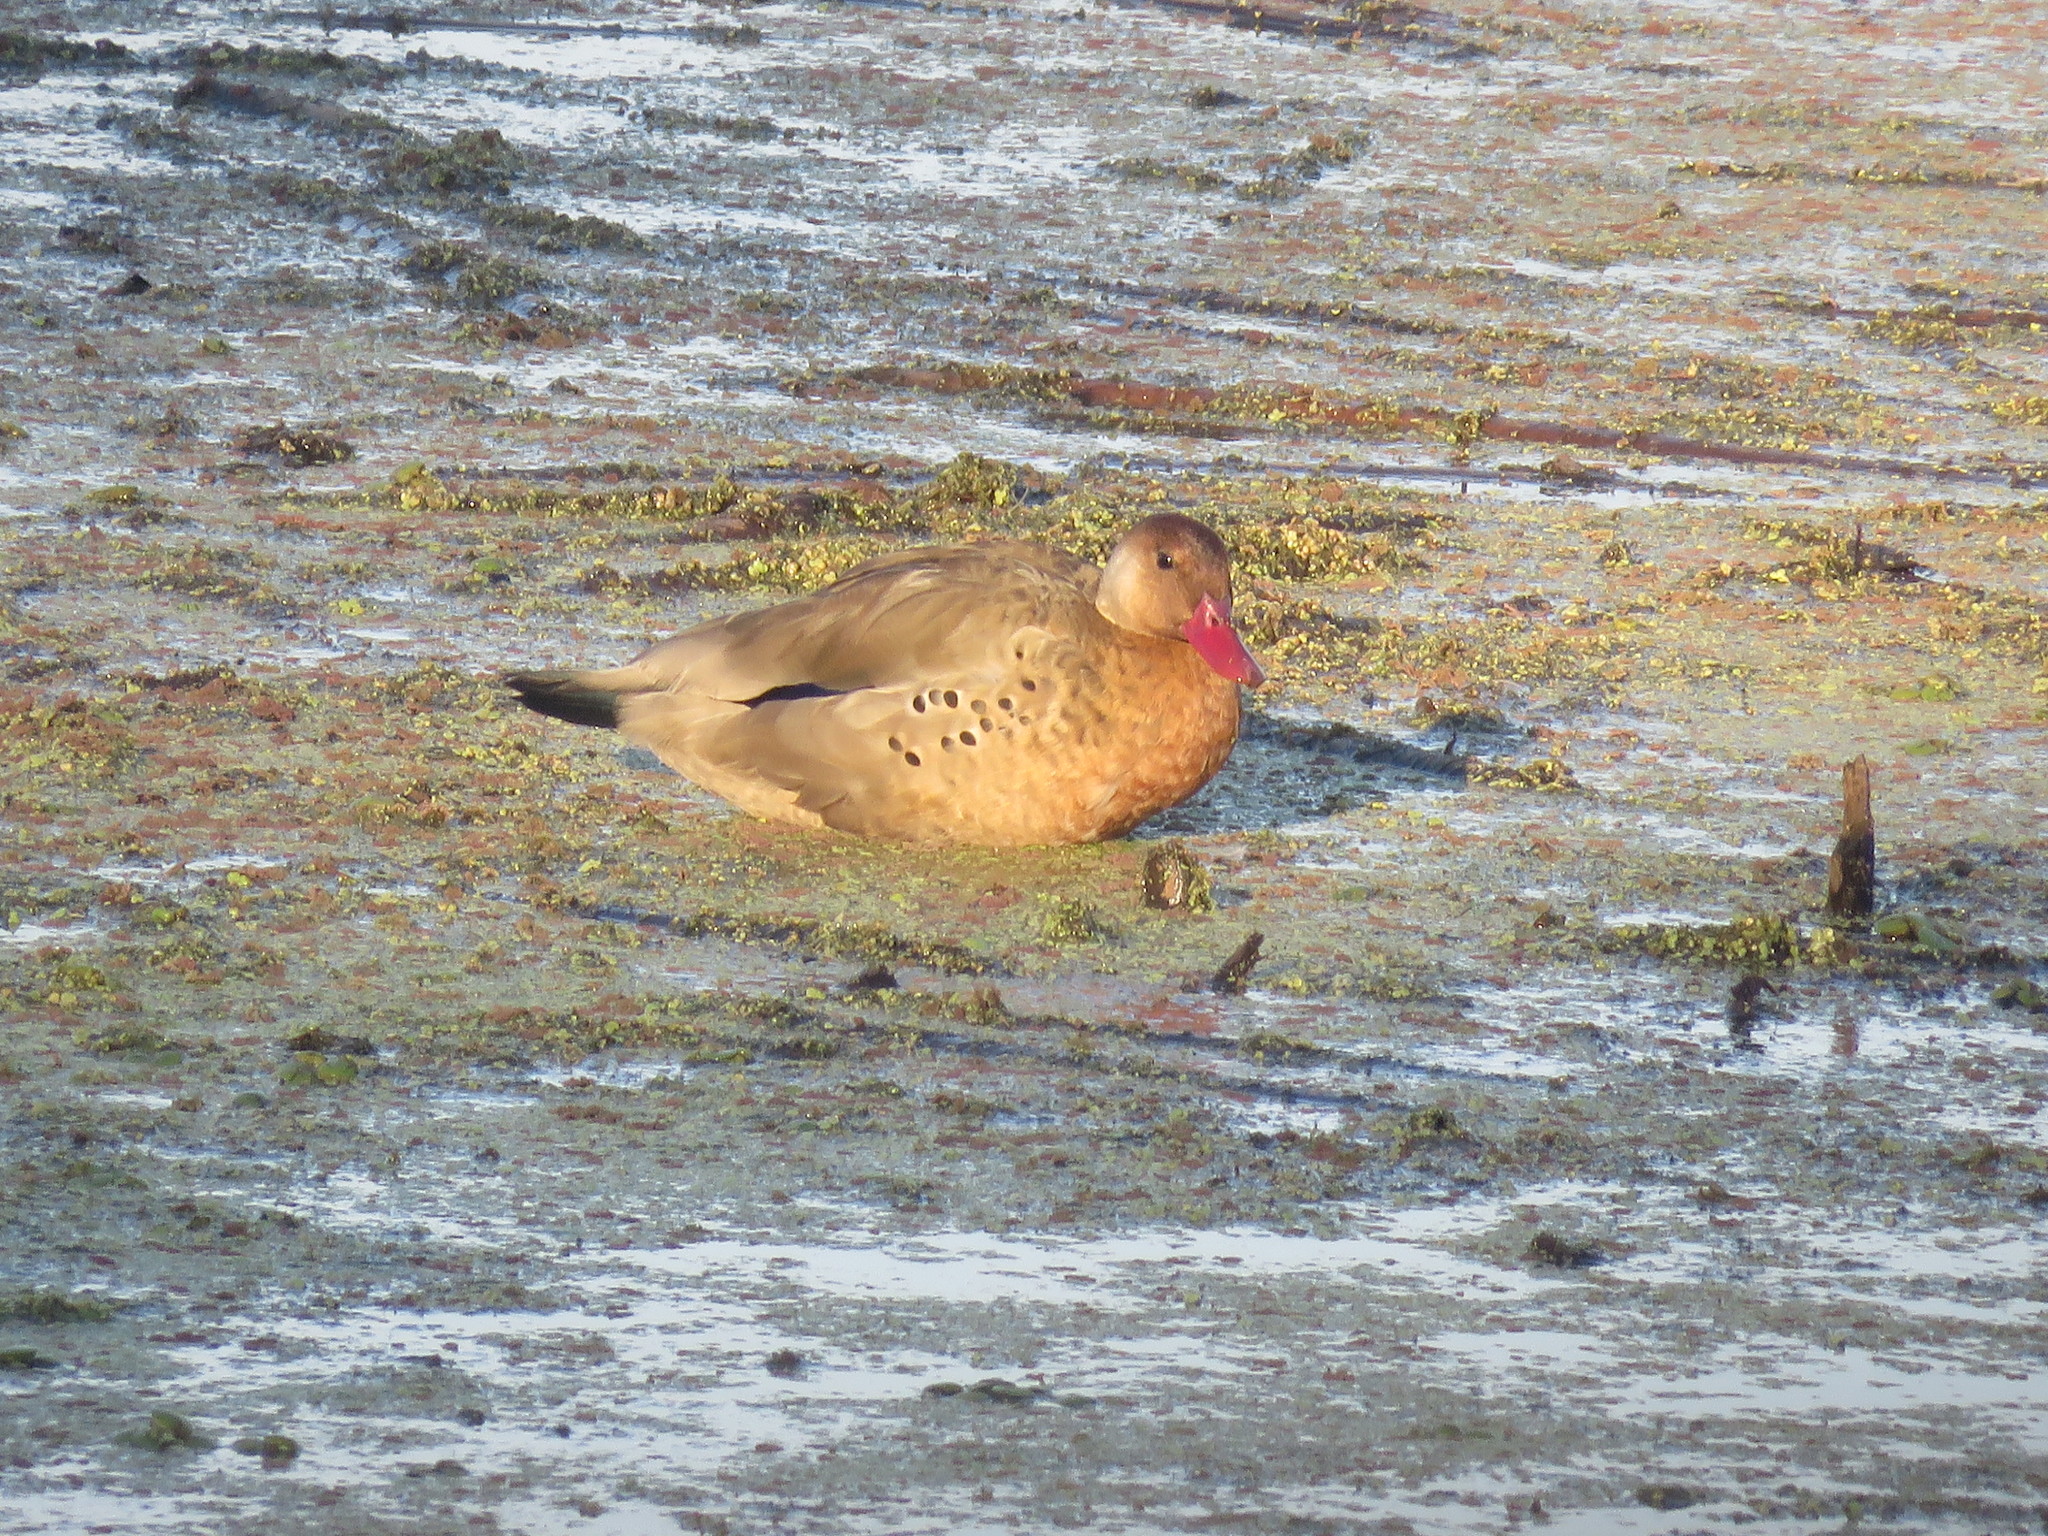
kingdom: Animalia
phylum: Chordata
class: Aves
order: Anseriformes
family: Anatidae
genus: Amazonetta
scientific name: Amazonetta brasiliensis
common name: Brazilian teal
